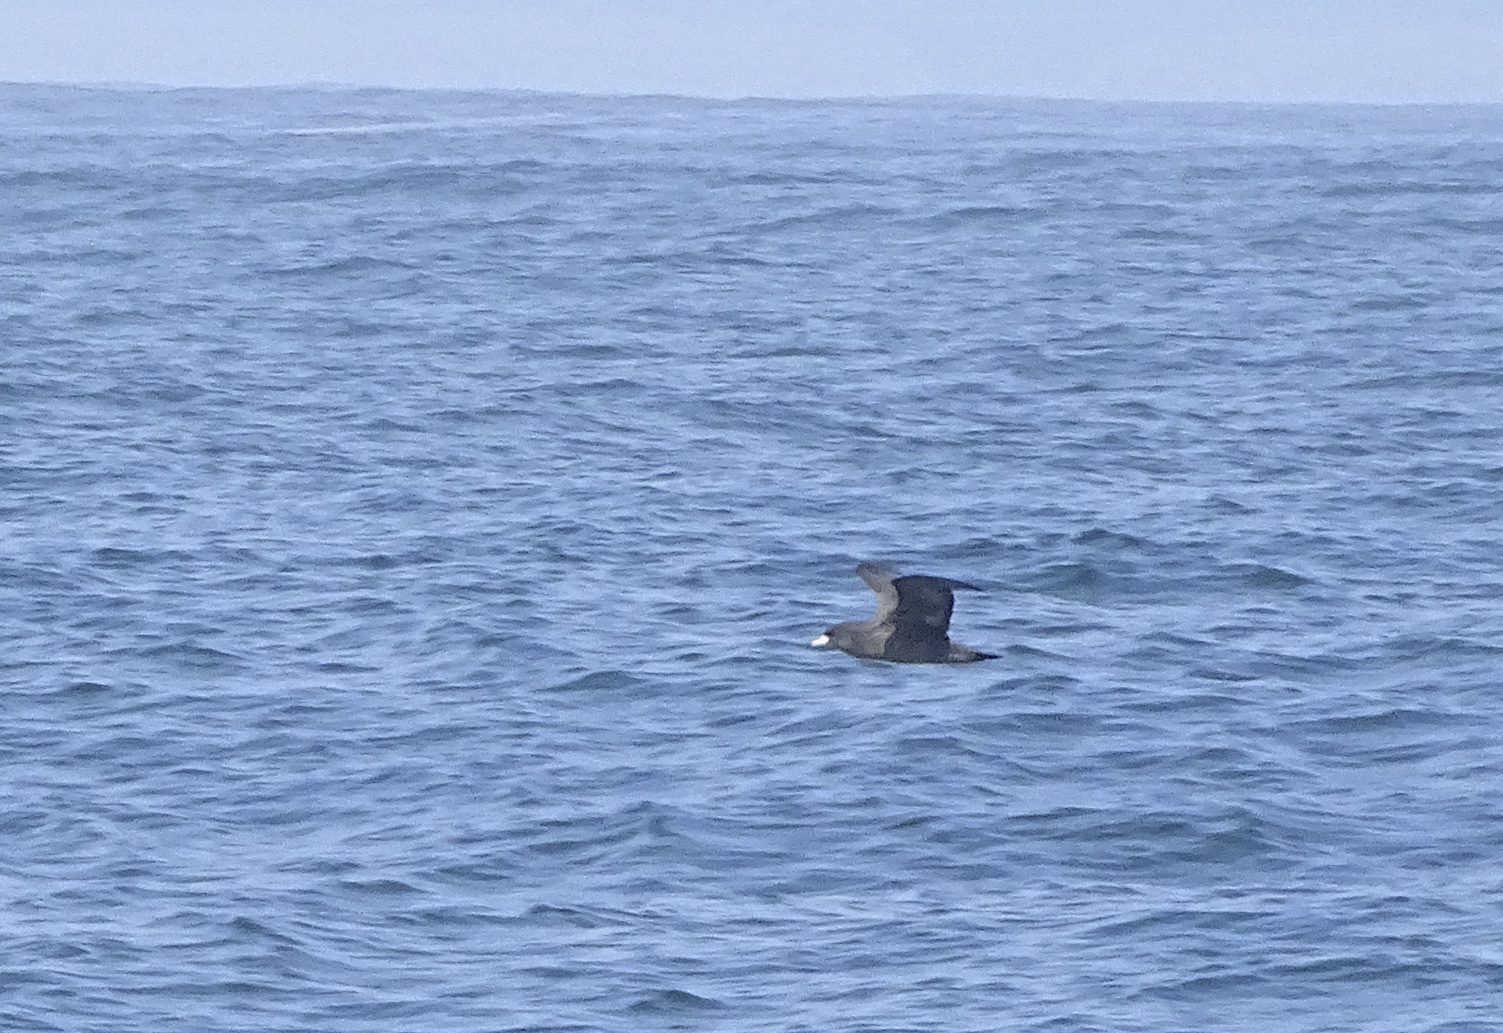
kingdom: Animalia
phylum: Chordata
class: Aves
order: Procellariiformes
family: Procellariidae
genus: Puffinus
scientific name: Puffinus carneipes
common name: Flesh-footed shearwater
